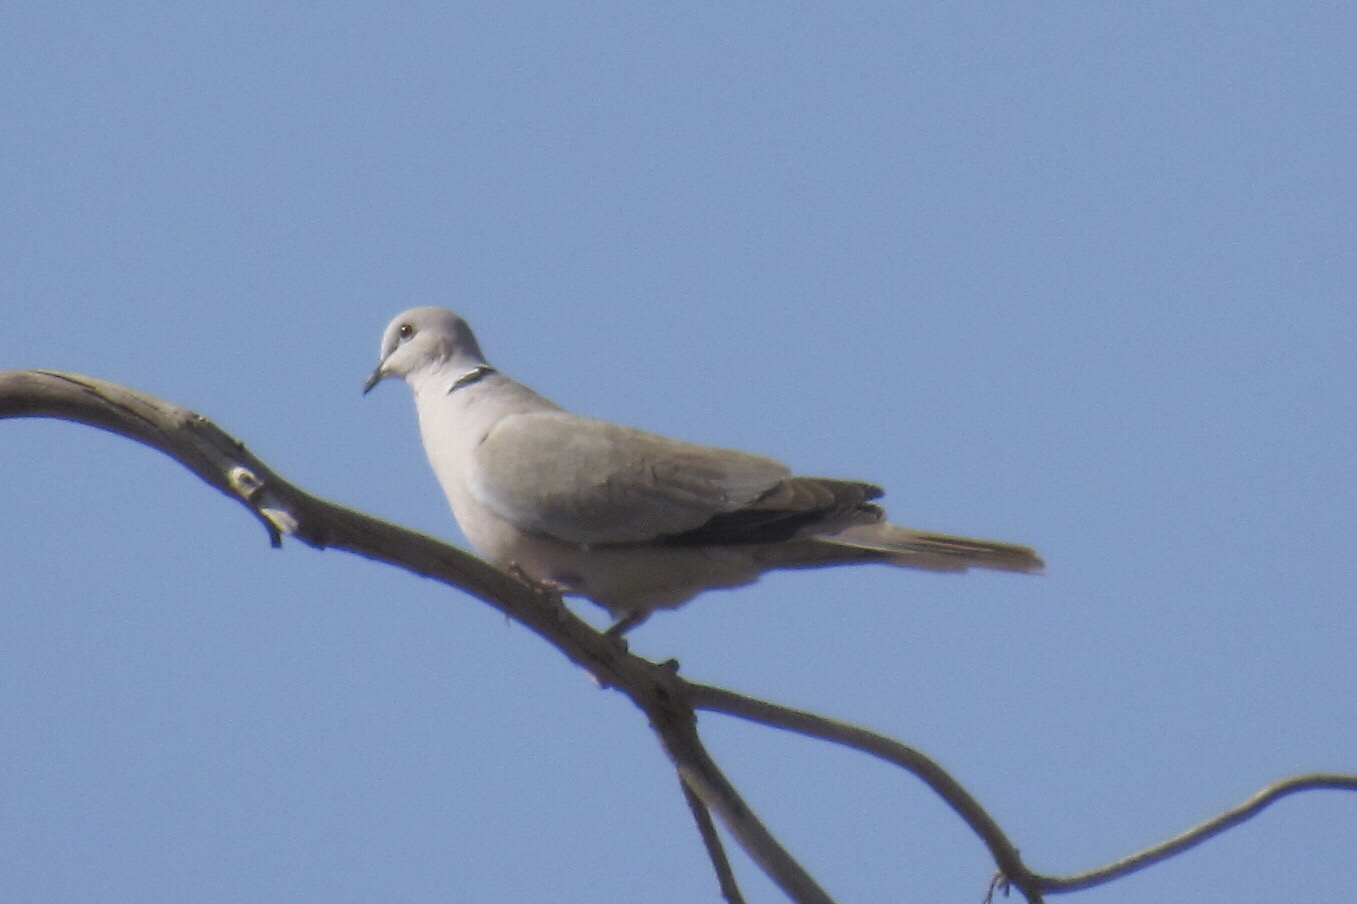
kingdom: Animalia
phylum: Chordata
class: Aves
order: Columbiformes
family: Columbidae
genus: Streptopelia
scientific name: Streptopelia decaocto
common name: Eurasian collared dove
